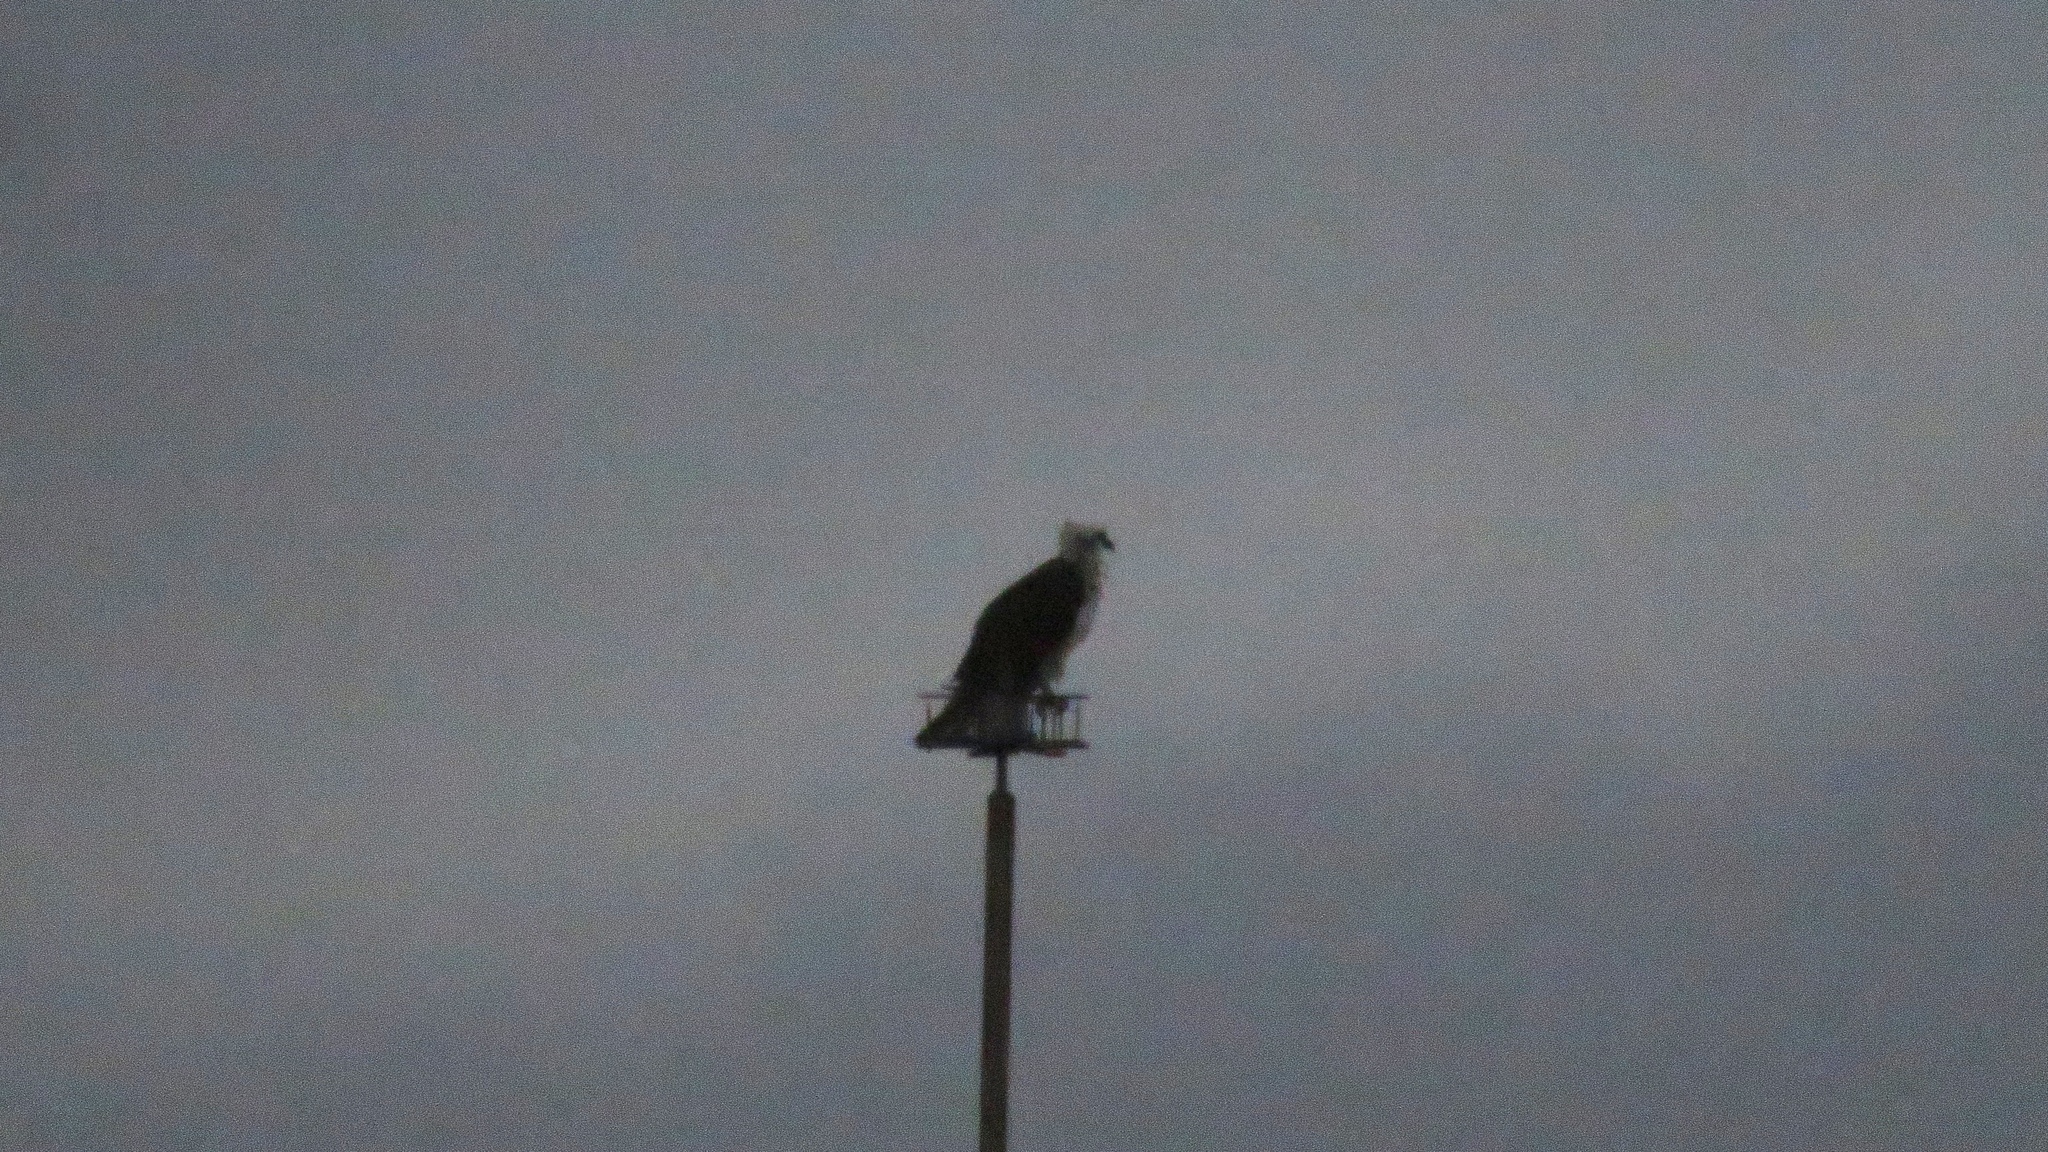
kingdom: Animalia
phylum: Chordata
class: Aves
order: Accipitriformes
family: Pandionidae
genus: Pandion
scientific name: Pandion haliaetus
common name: Osprey
